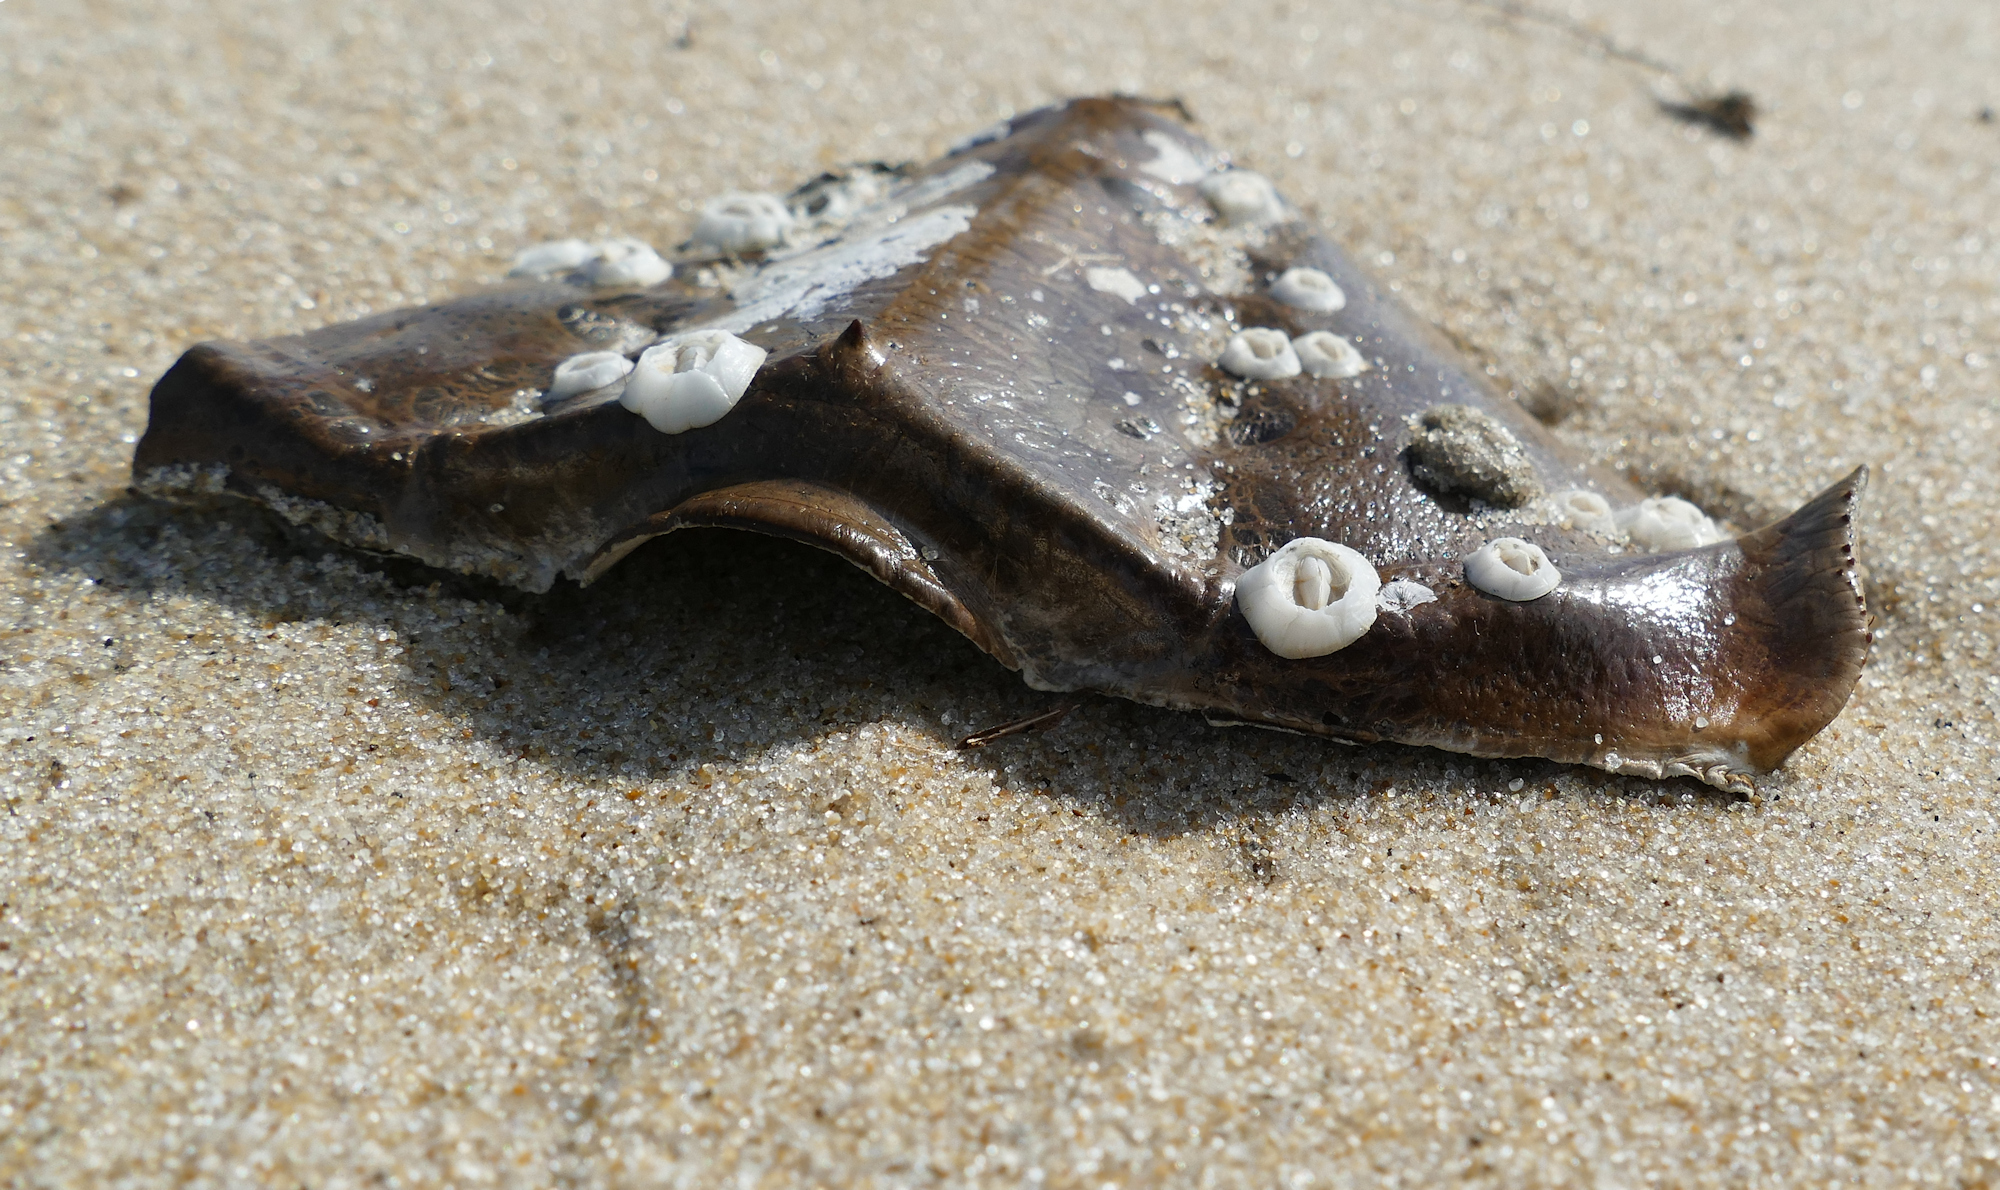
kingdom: Animalia
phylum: Arthropoda
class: Merostomata
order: Xiphosurida
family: Limulidae
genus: Limulus
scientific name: Limulus polyphemus
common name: Horseshoe crab
